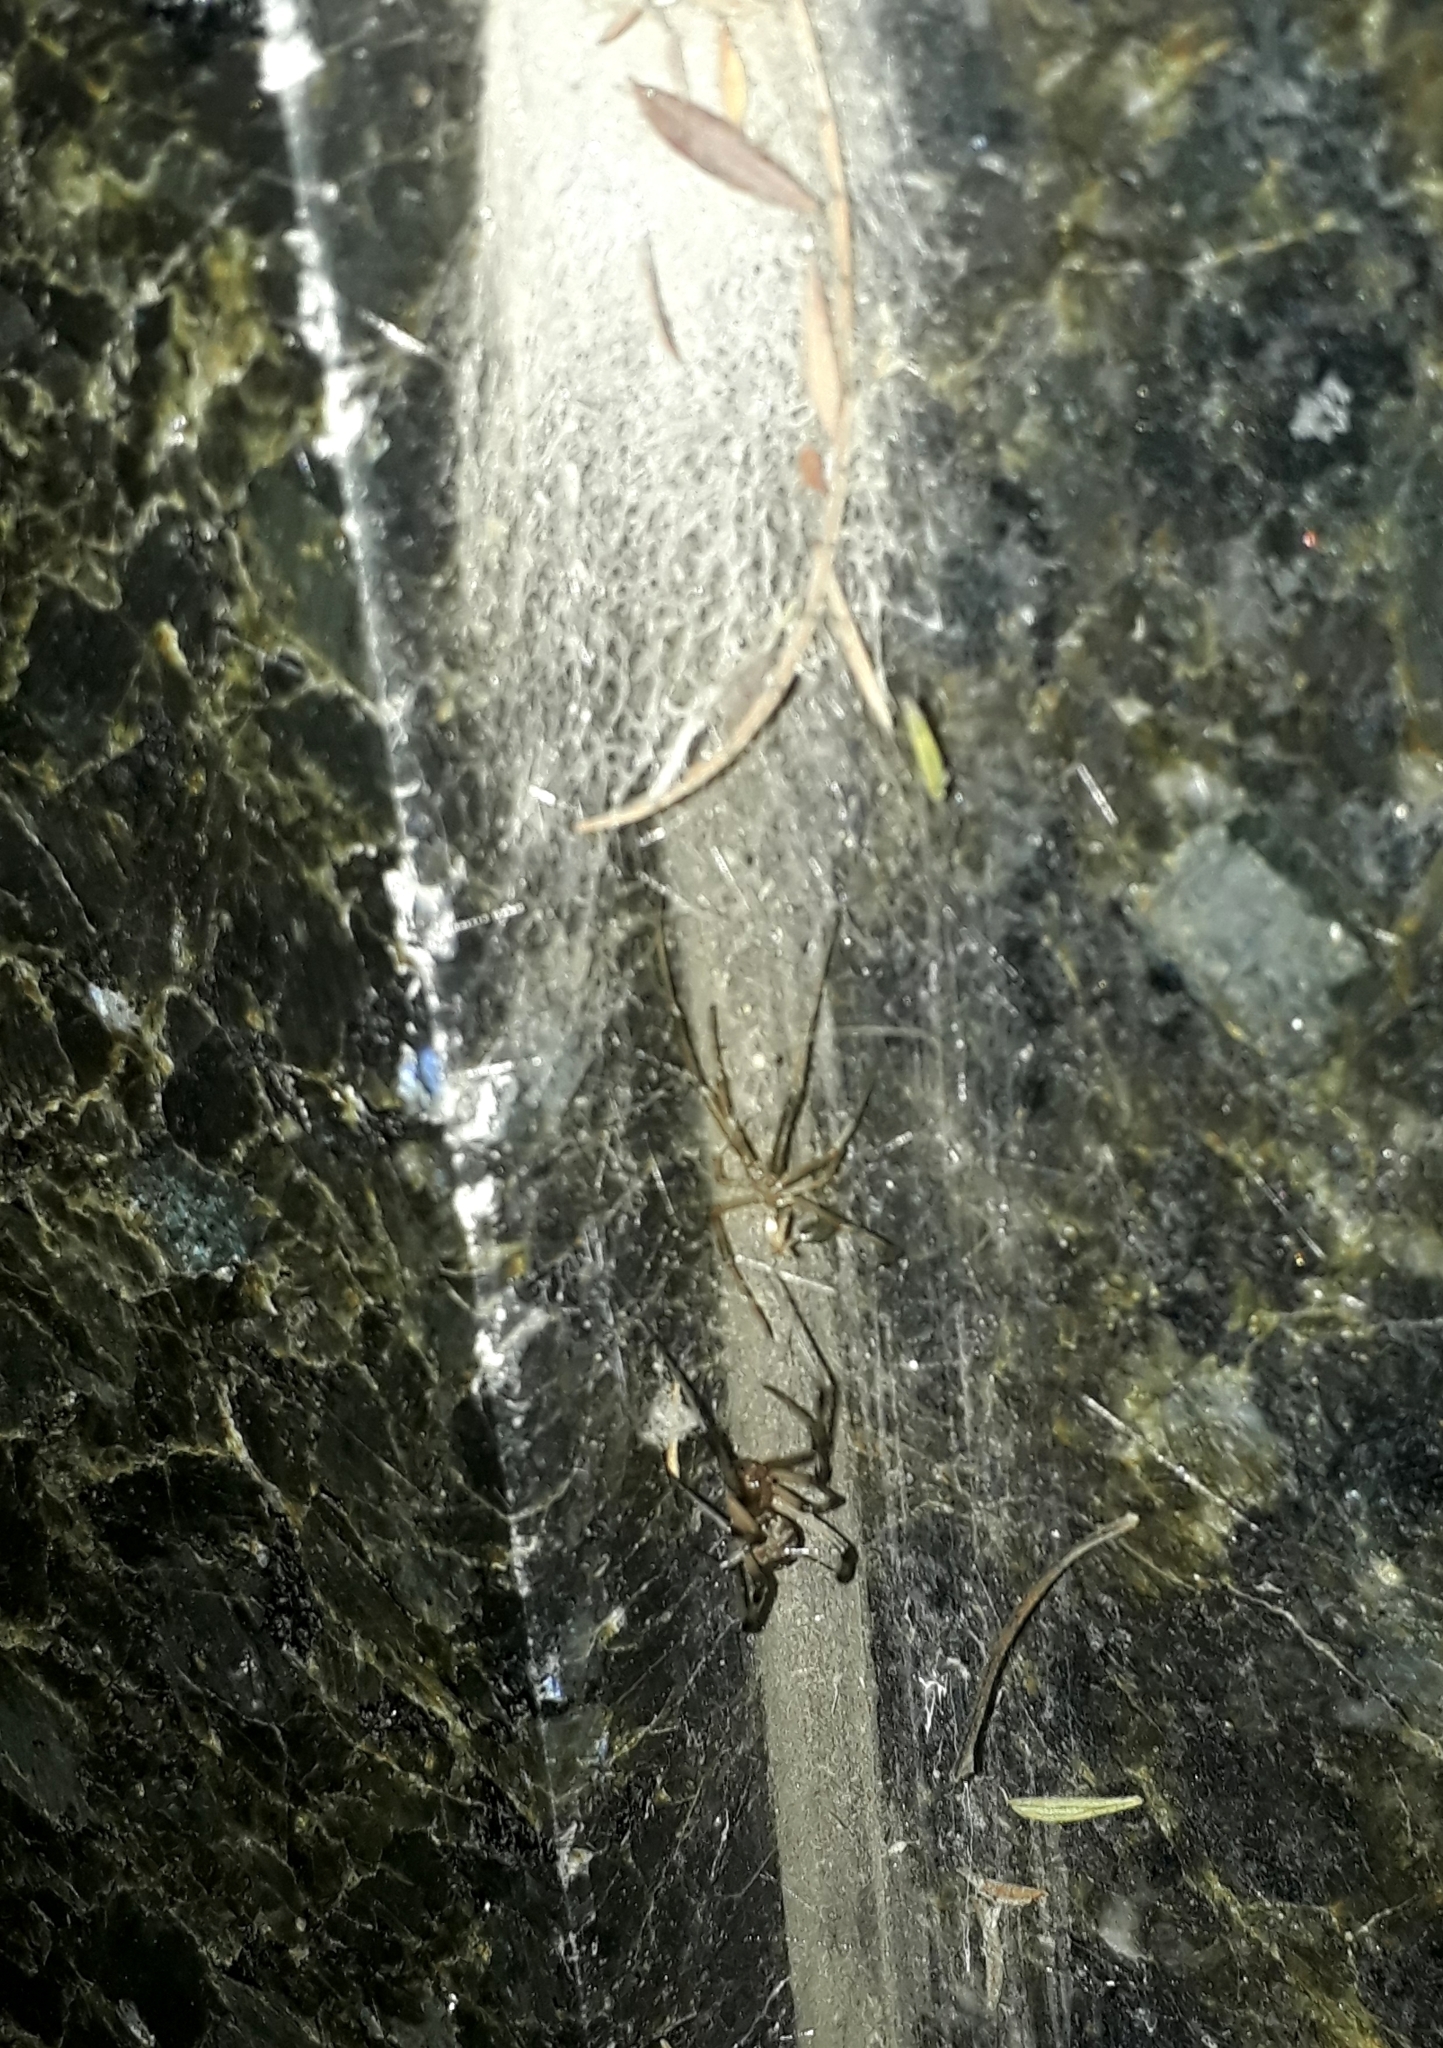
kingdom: Animalia
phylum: Arthropoda
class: Arachnida
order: Araneae
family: Theridiidae
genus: Latrodectus
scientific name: Latrodectus geometricus
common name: Brown widow spider
